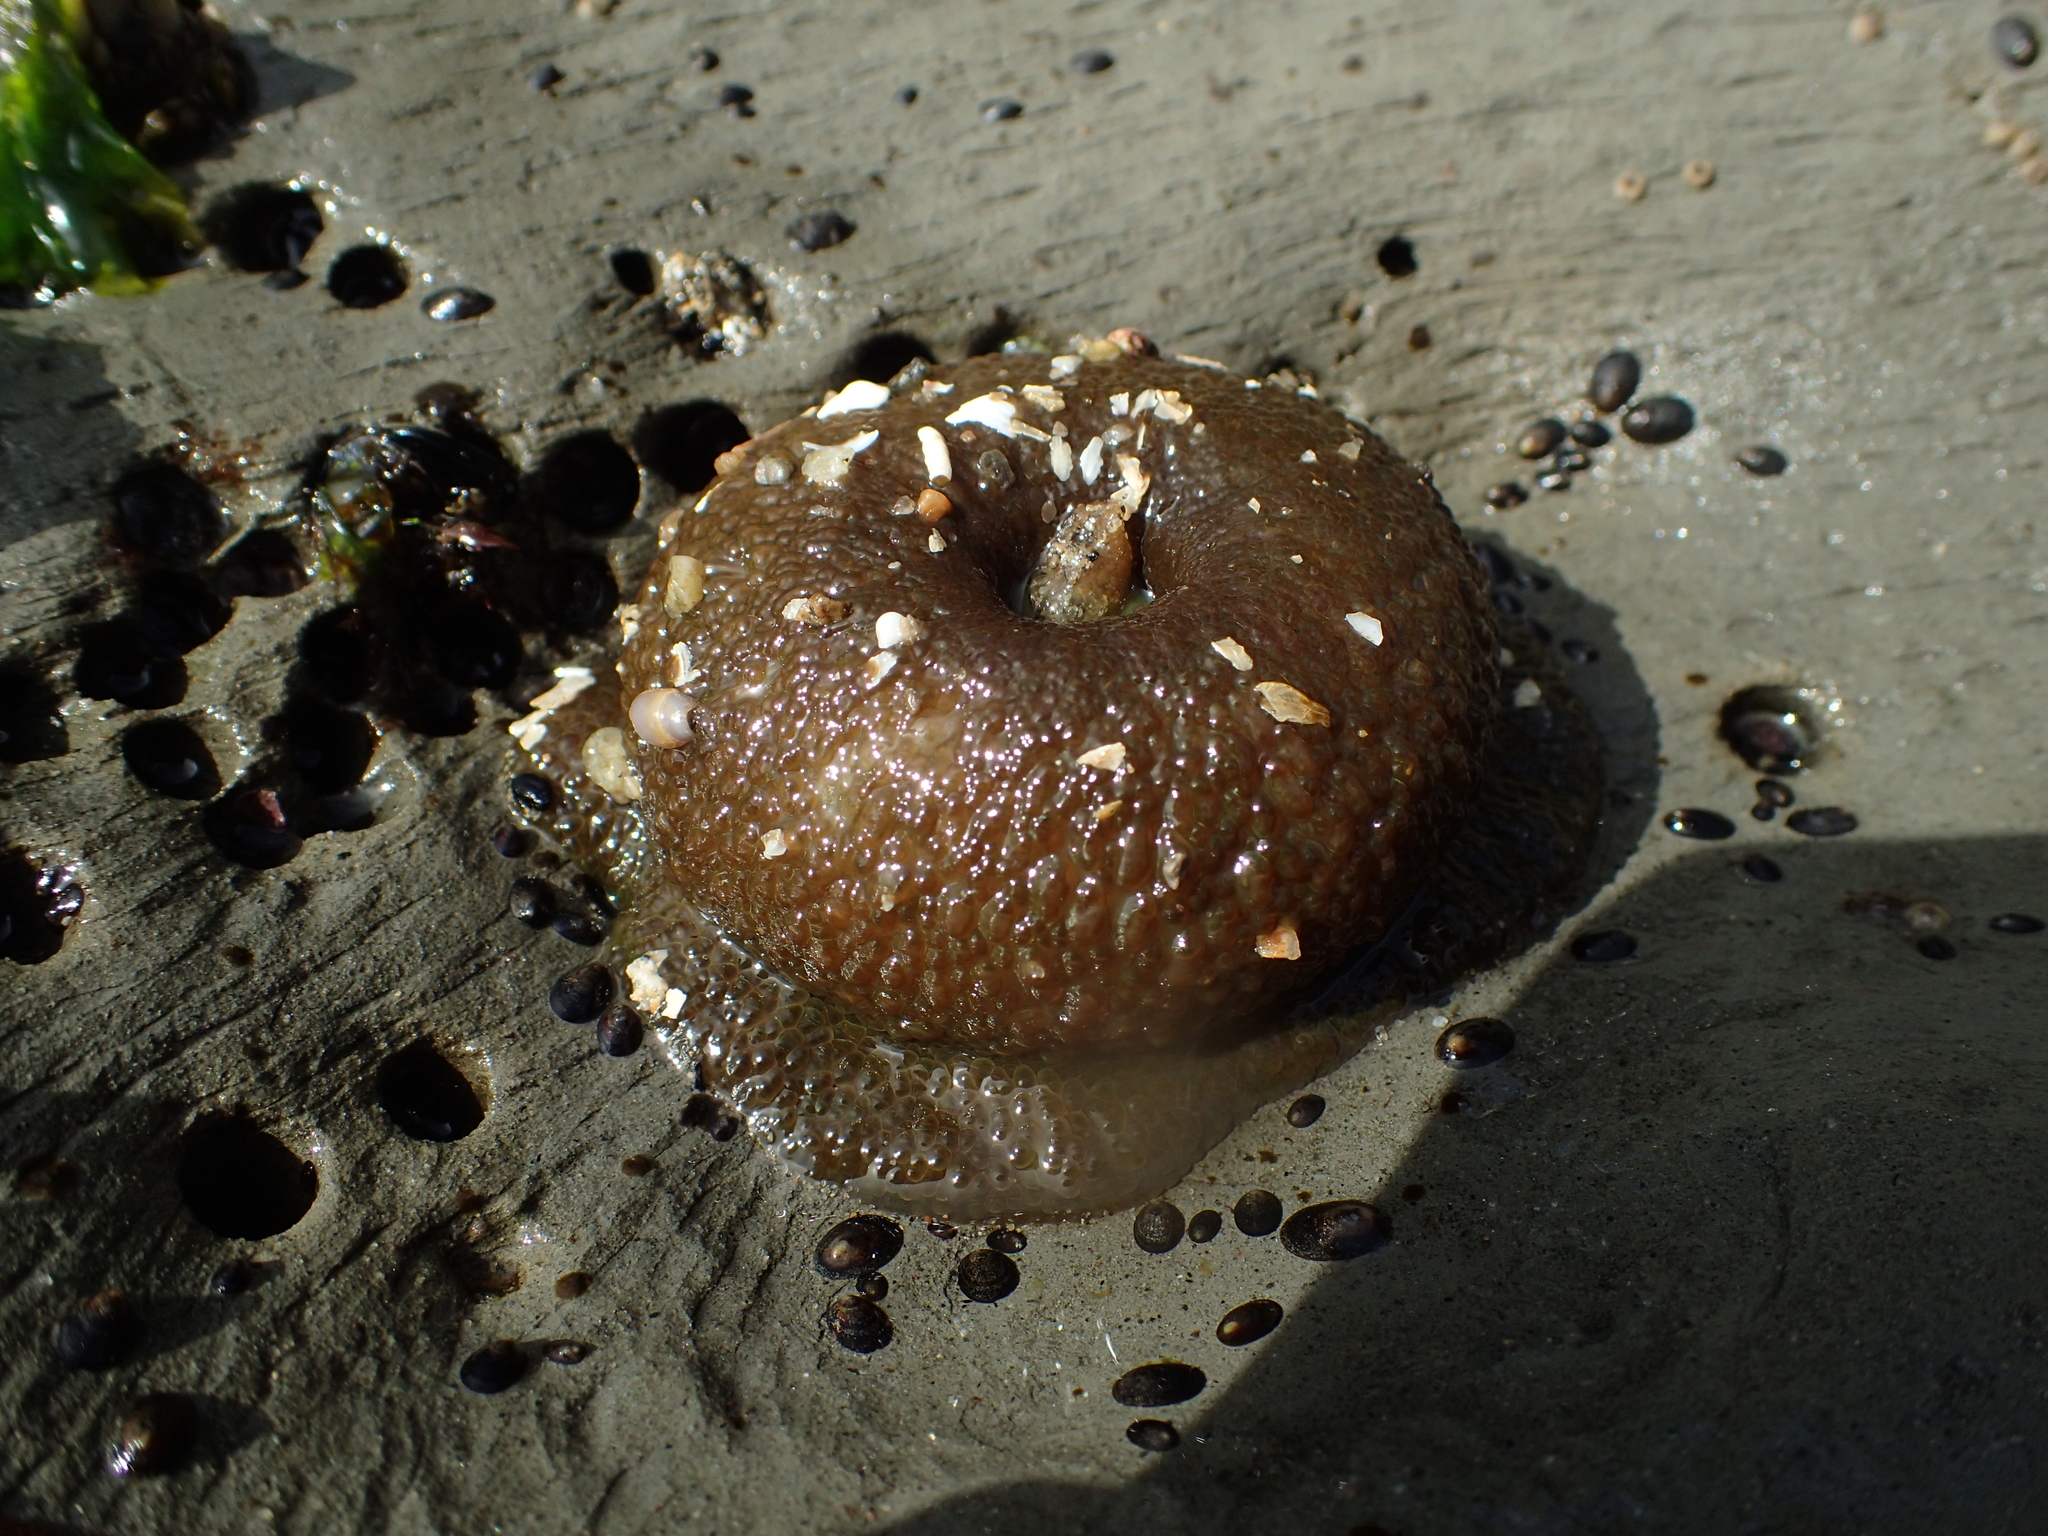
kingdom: Animalia
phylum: Cnidaria
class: Anthozoa
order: Actiniaria
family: Actiniidae
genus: Anthopleura
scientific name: Anthopleura xanthogrammica
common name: Giant green anemone
